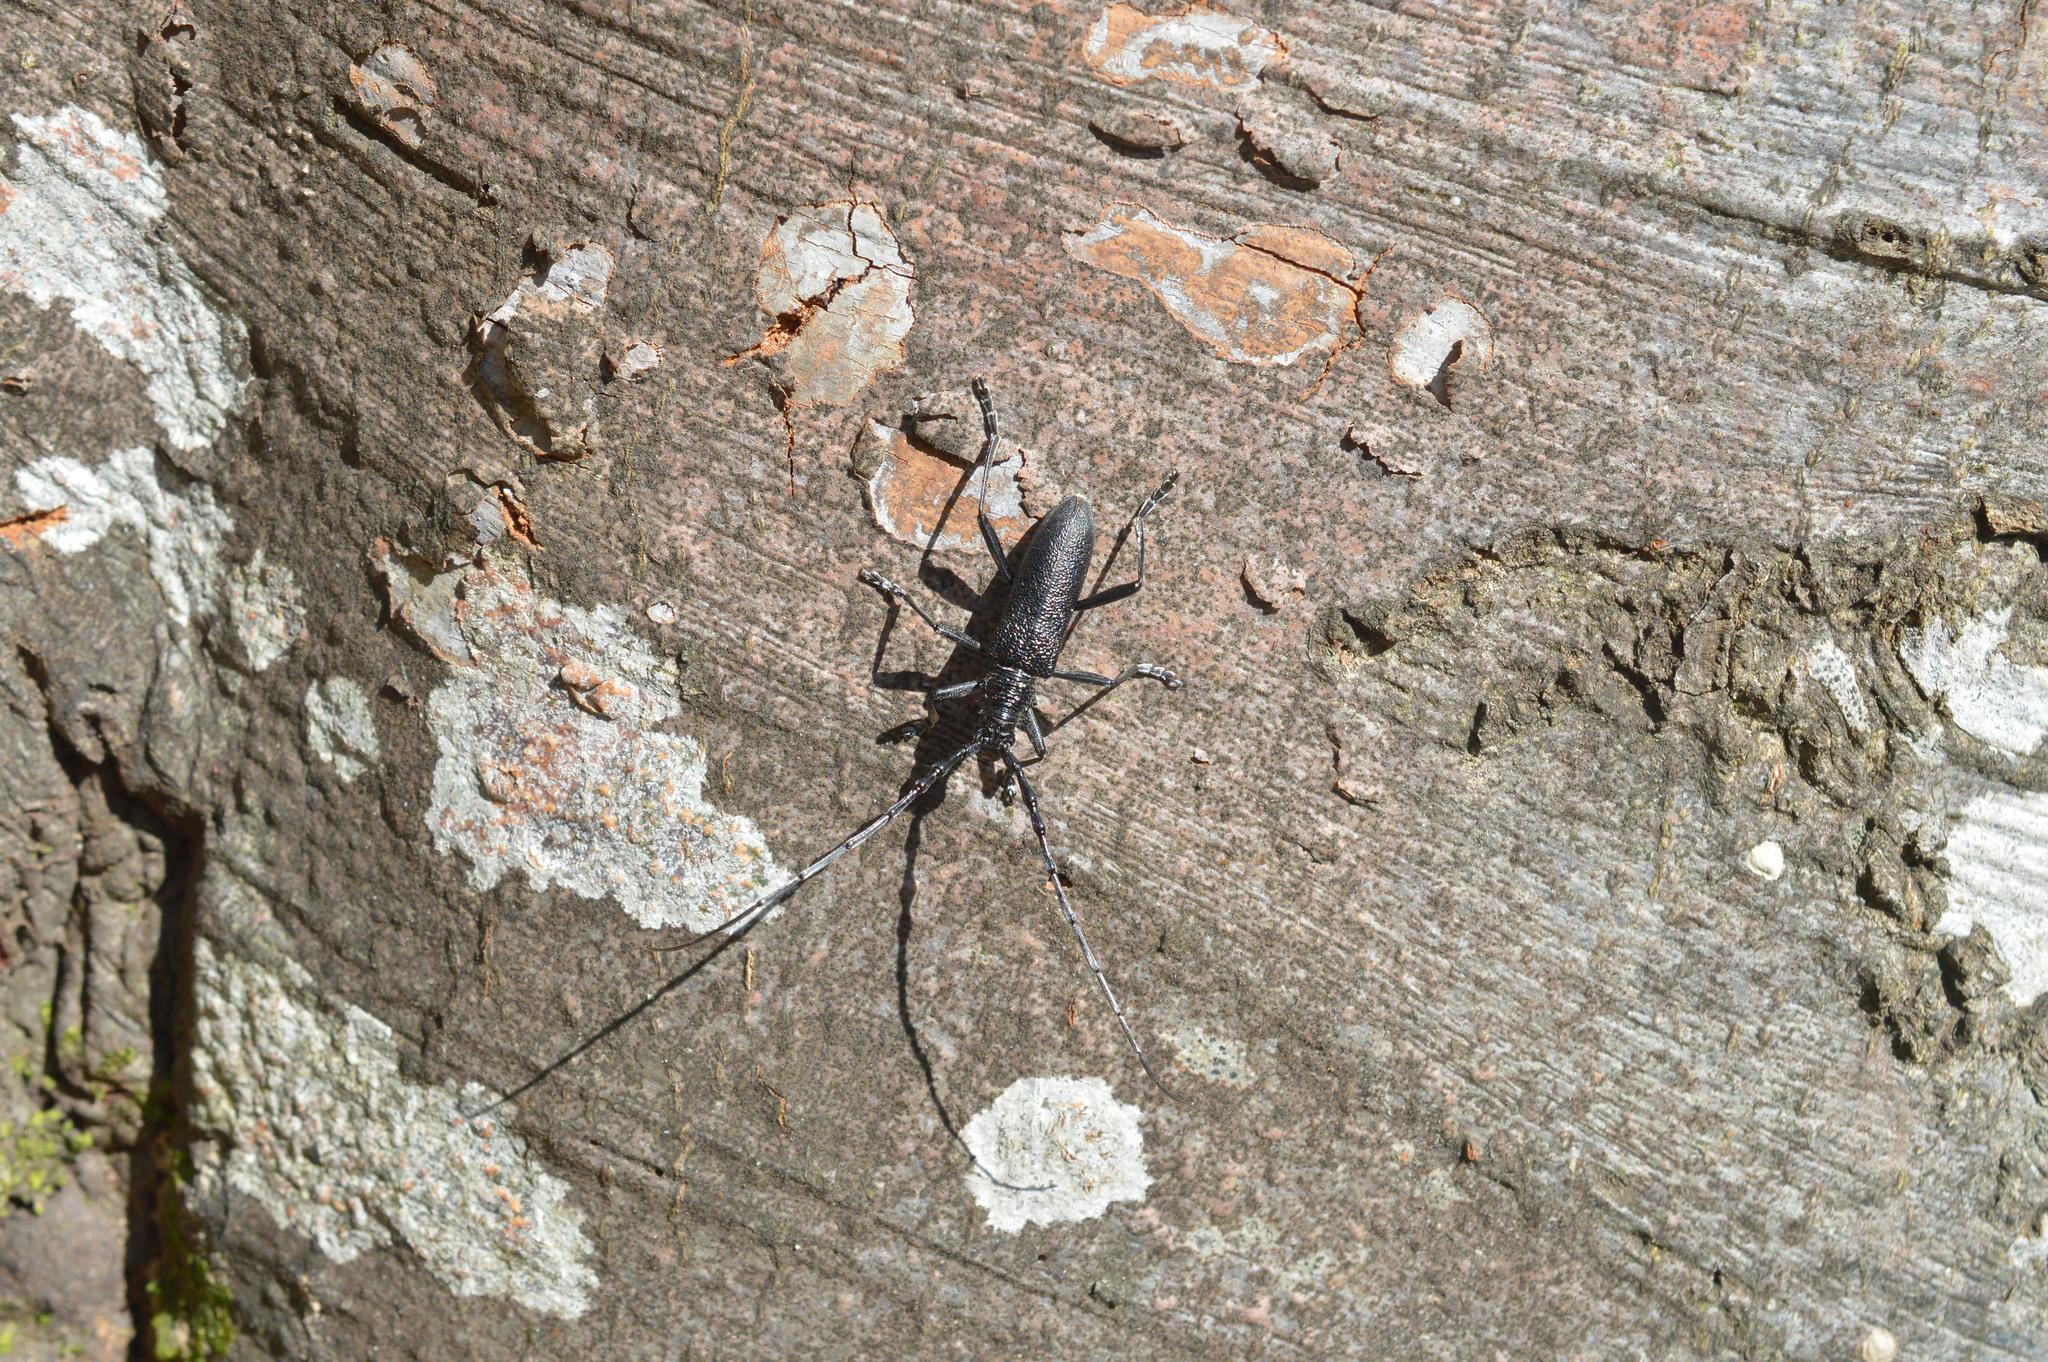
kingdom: Animalia
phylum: Arthropoda
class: Insecta
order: Coleoptera
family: Cerambycidae
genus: Cerambyx
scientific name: Cerambyx scopolii
